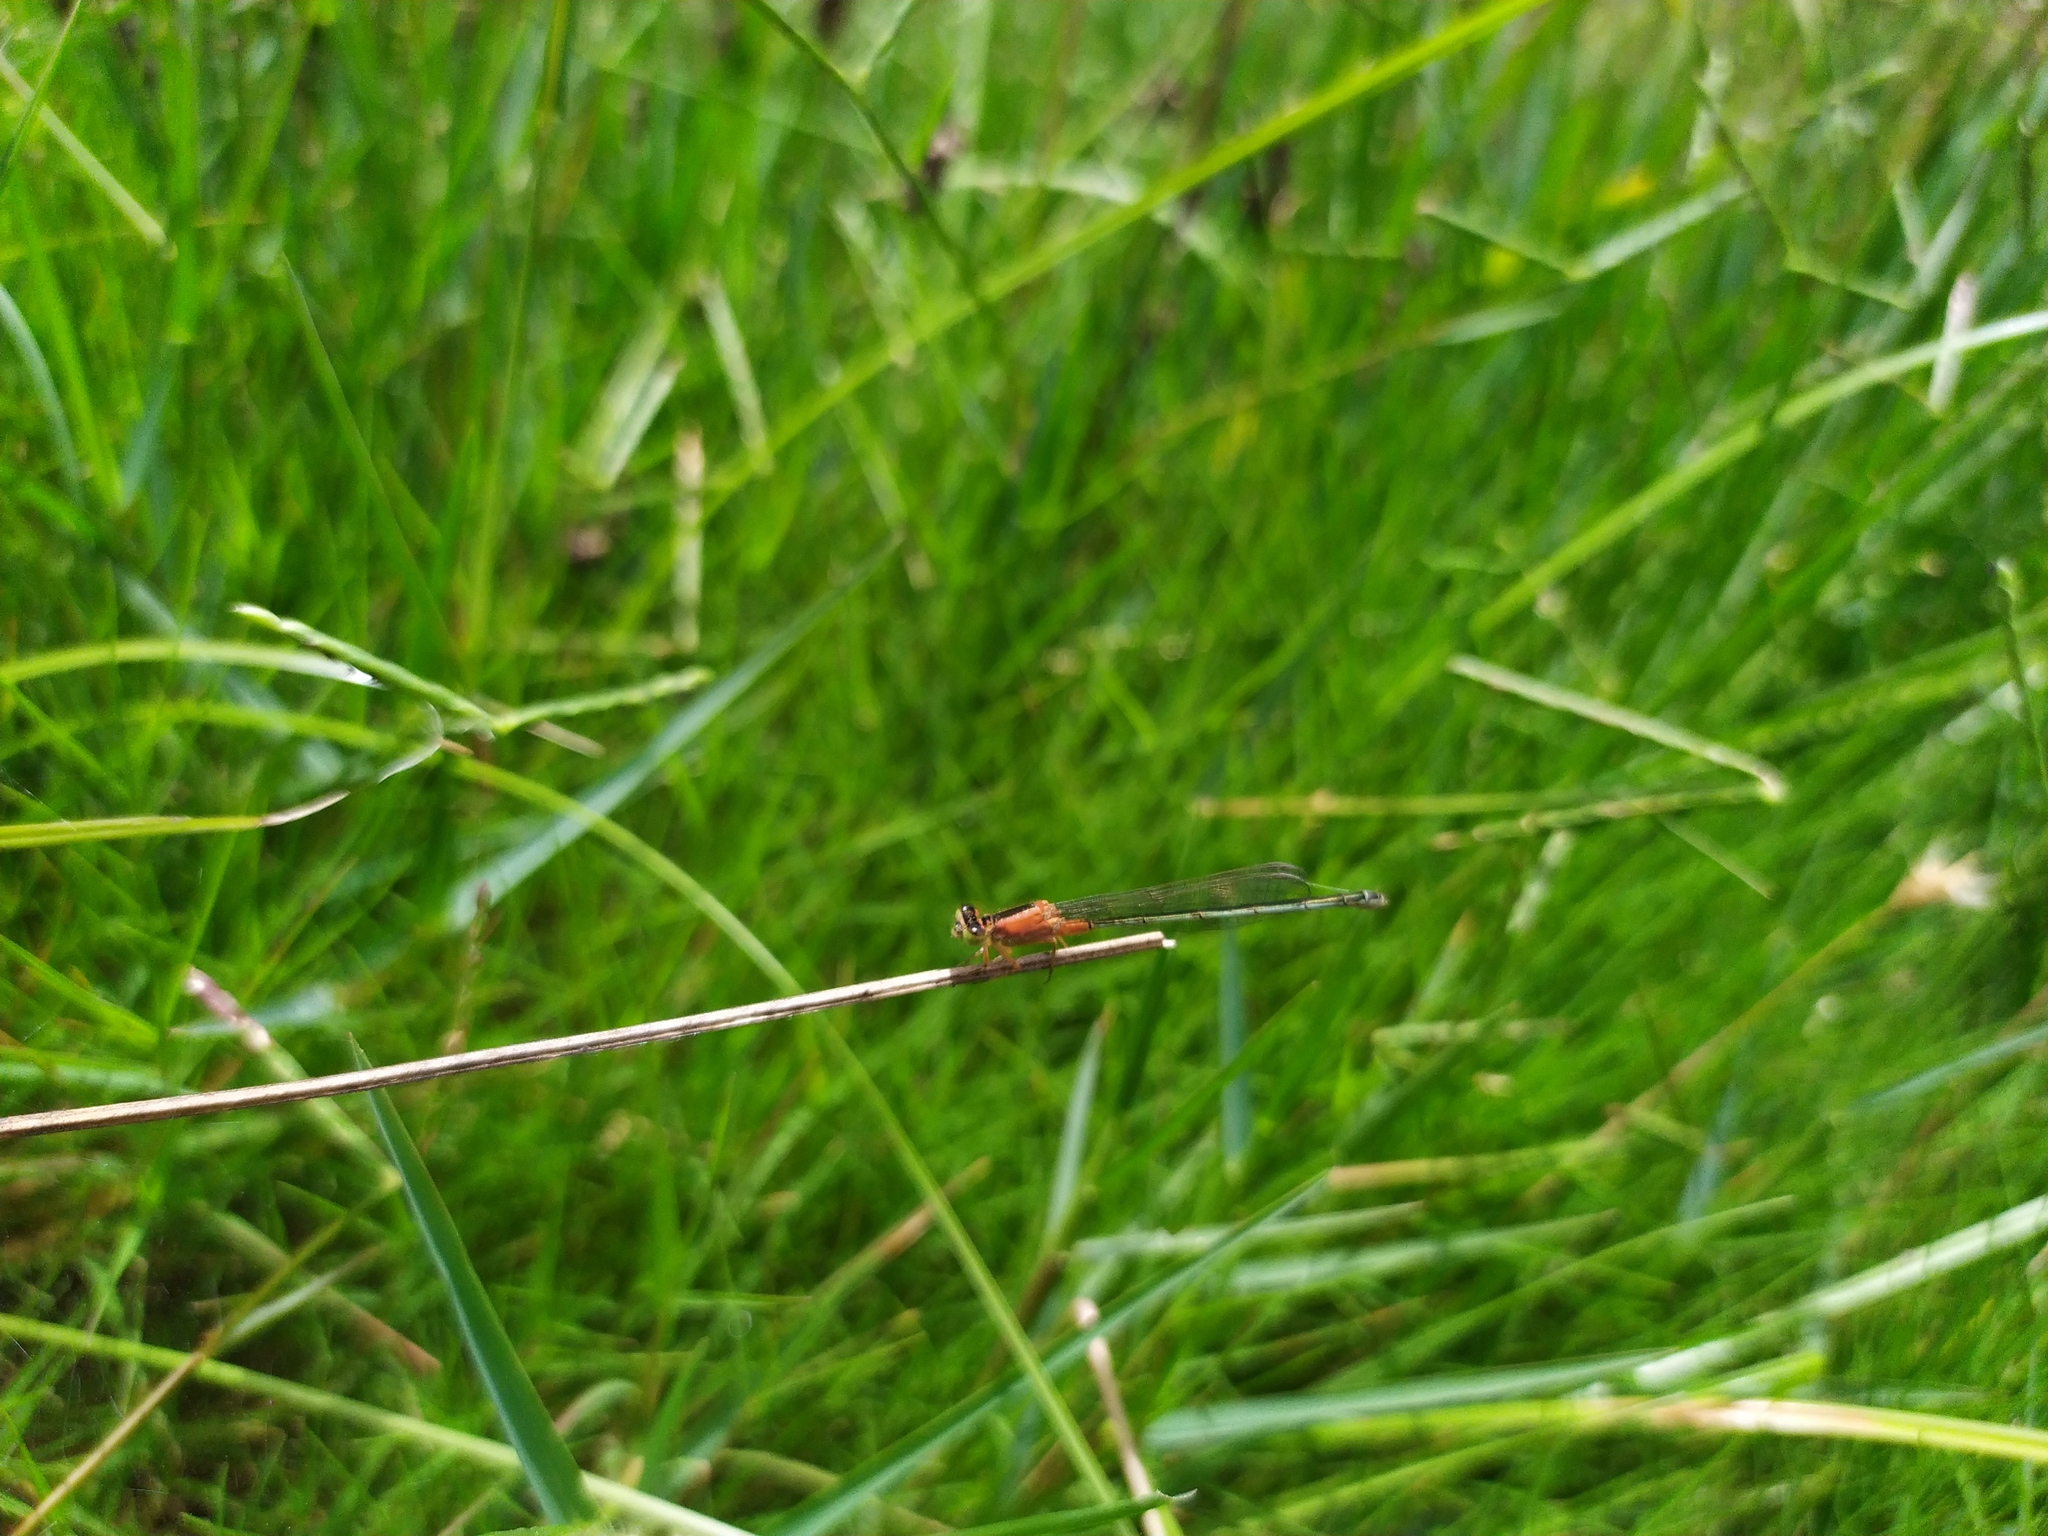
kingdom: Animalia
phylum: Arthropoda
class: Insecta
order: Odonata
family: Coenagrionidae
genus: Ischnura
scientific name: Ischnura senegalensis
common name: Tropical bluetail
